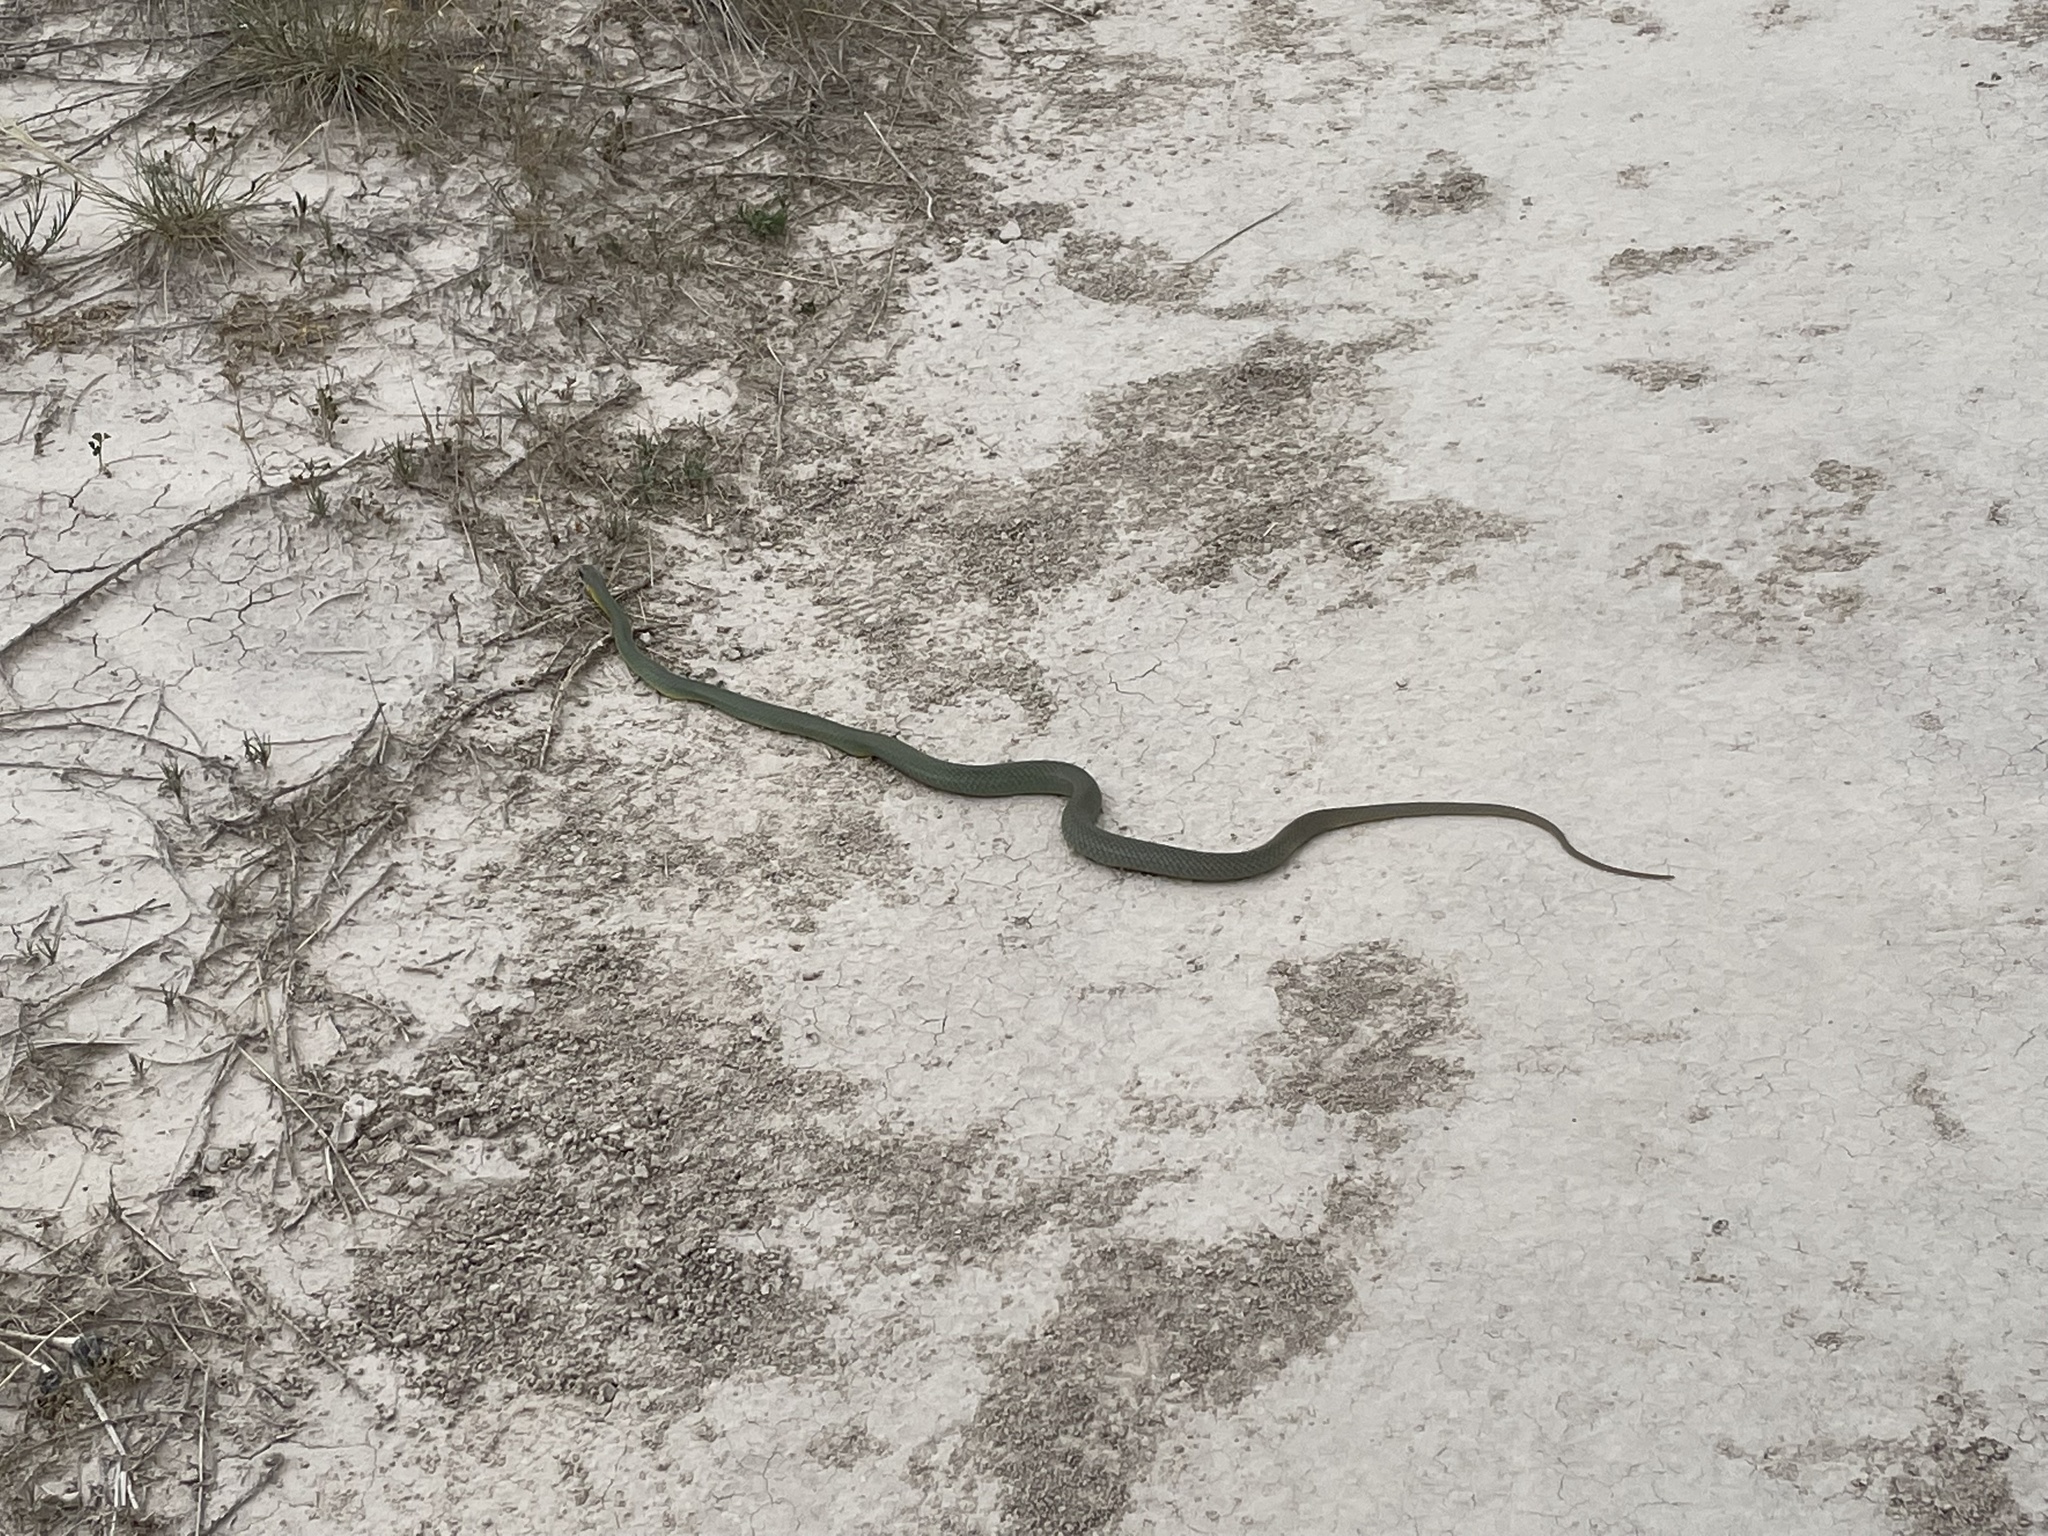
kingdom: Animalia
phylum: Chordata
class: Squamata
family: Colubridae
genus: Coluber
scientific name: Coluber constrictor
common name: Eastern racer
